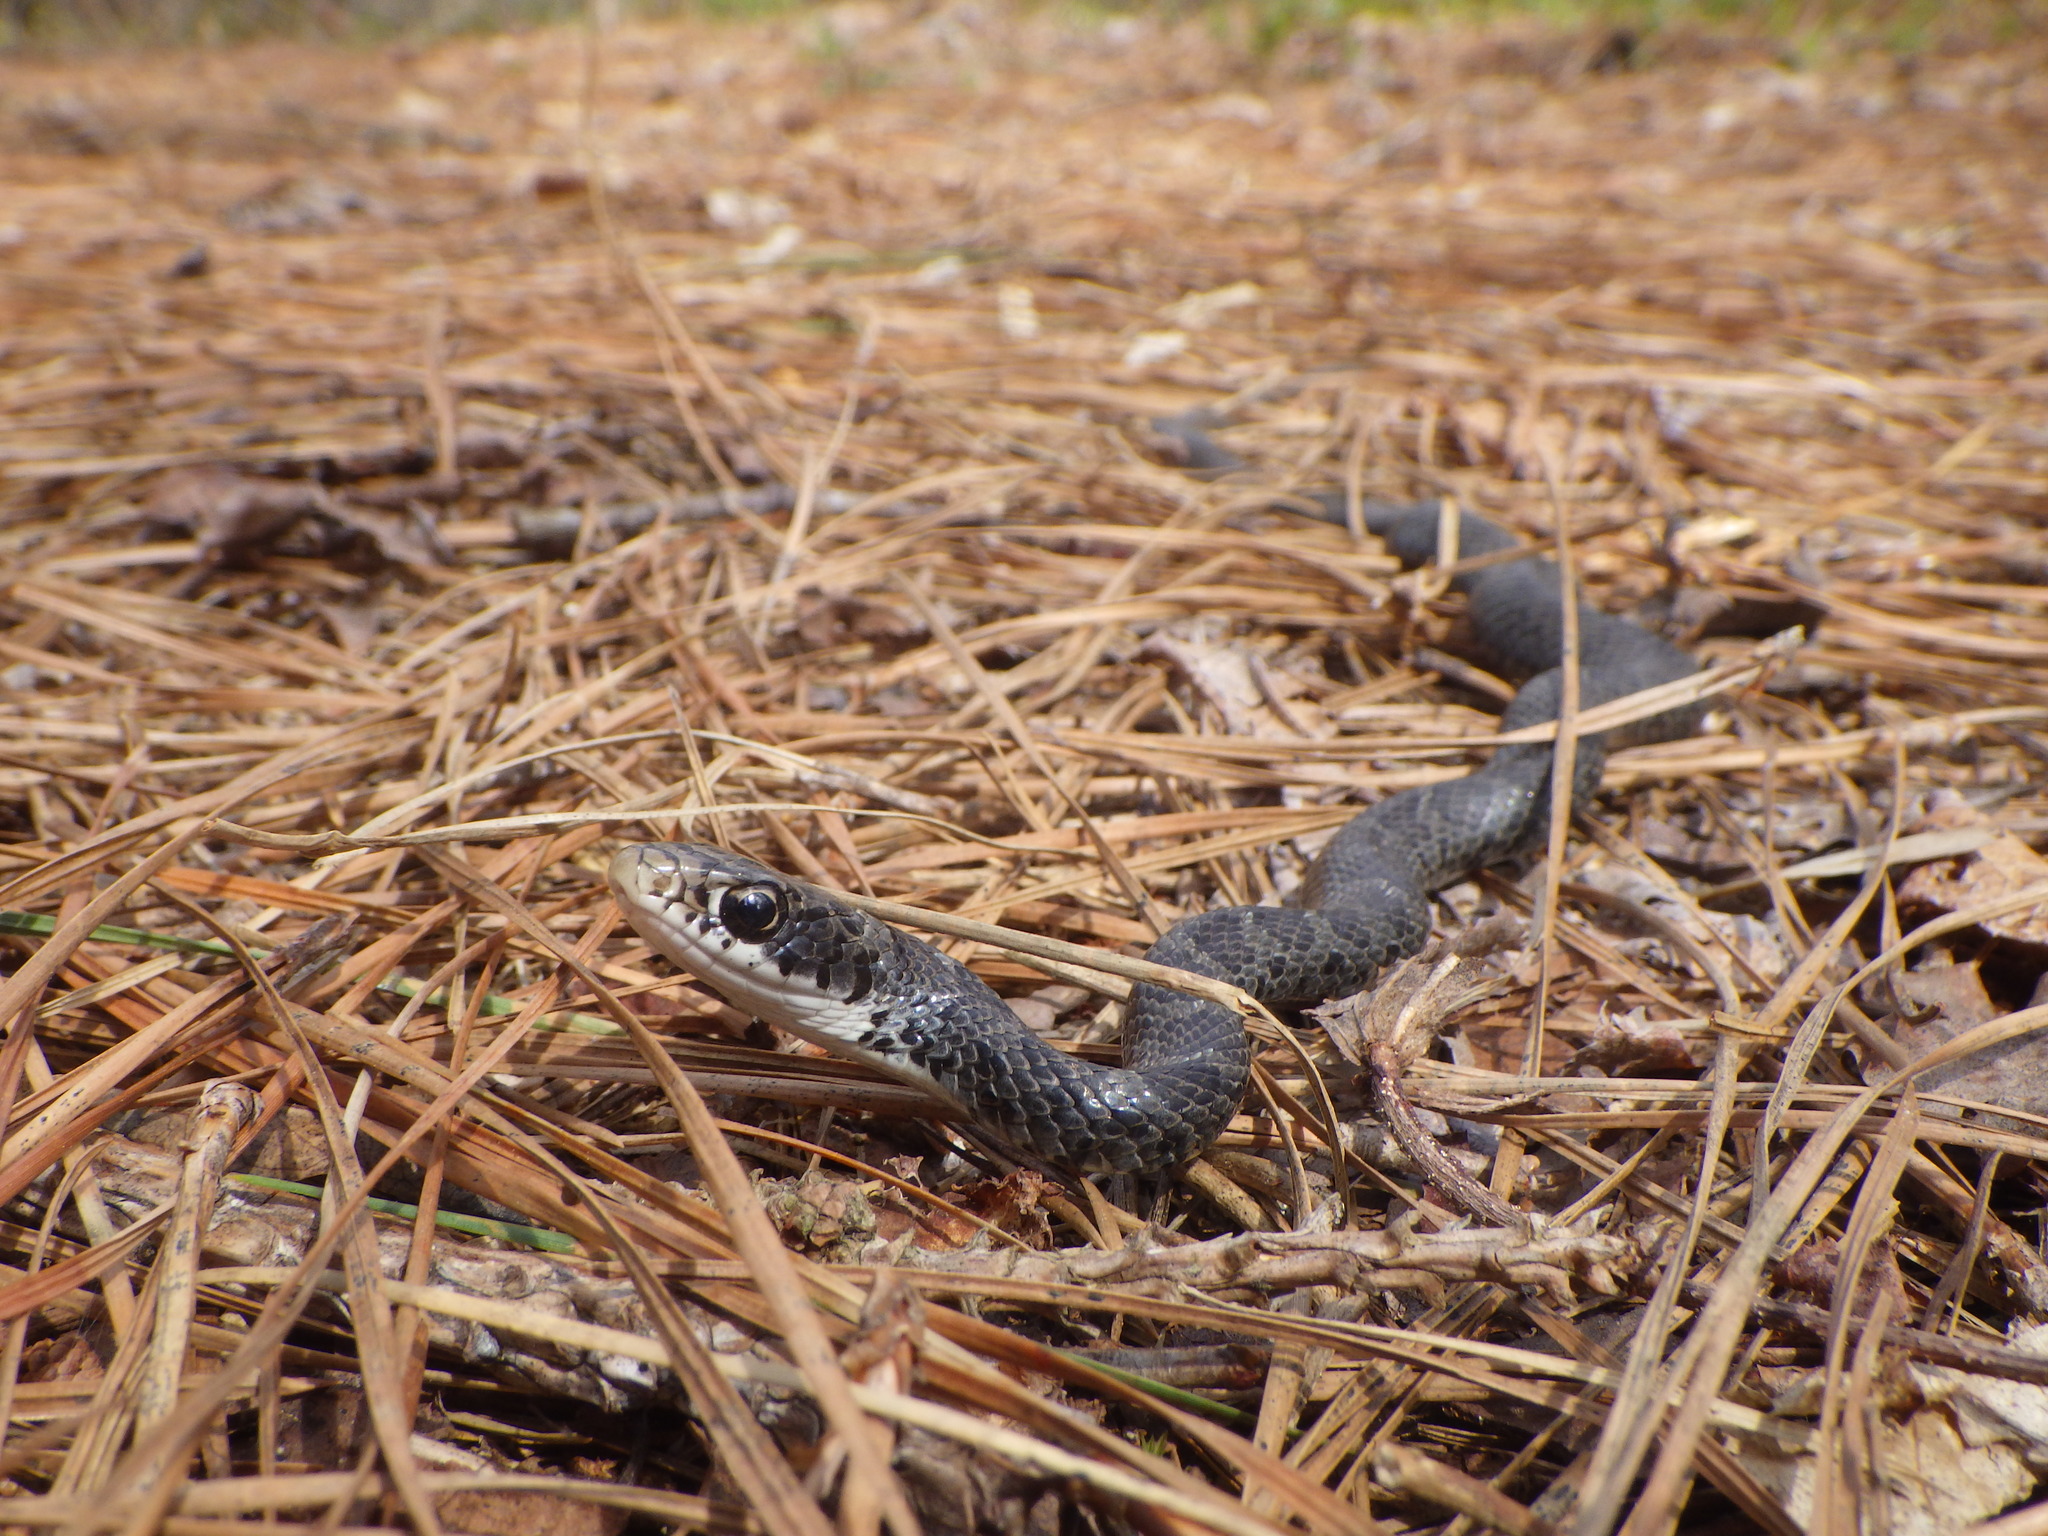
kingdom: Animalia
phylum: Chordata
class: Squamata
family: Colubridae
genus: Coluber
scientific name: Coluber constrictor
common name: Eastern racer
